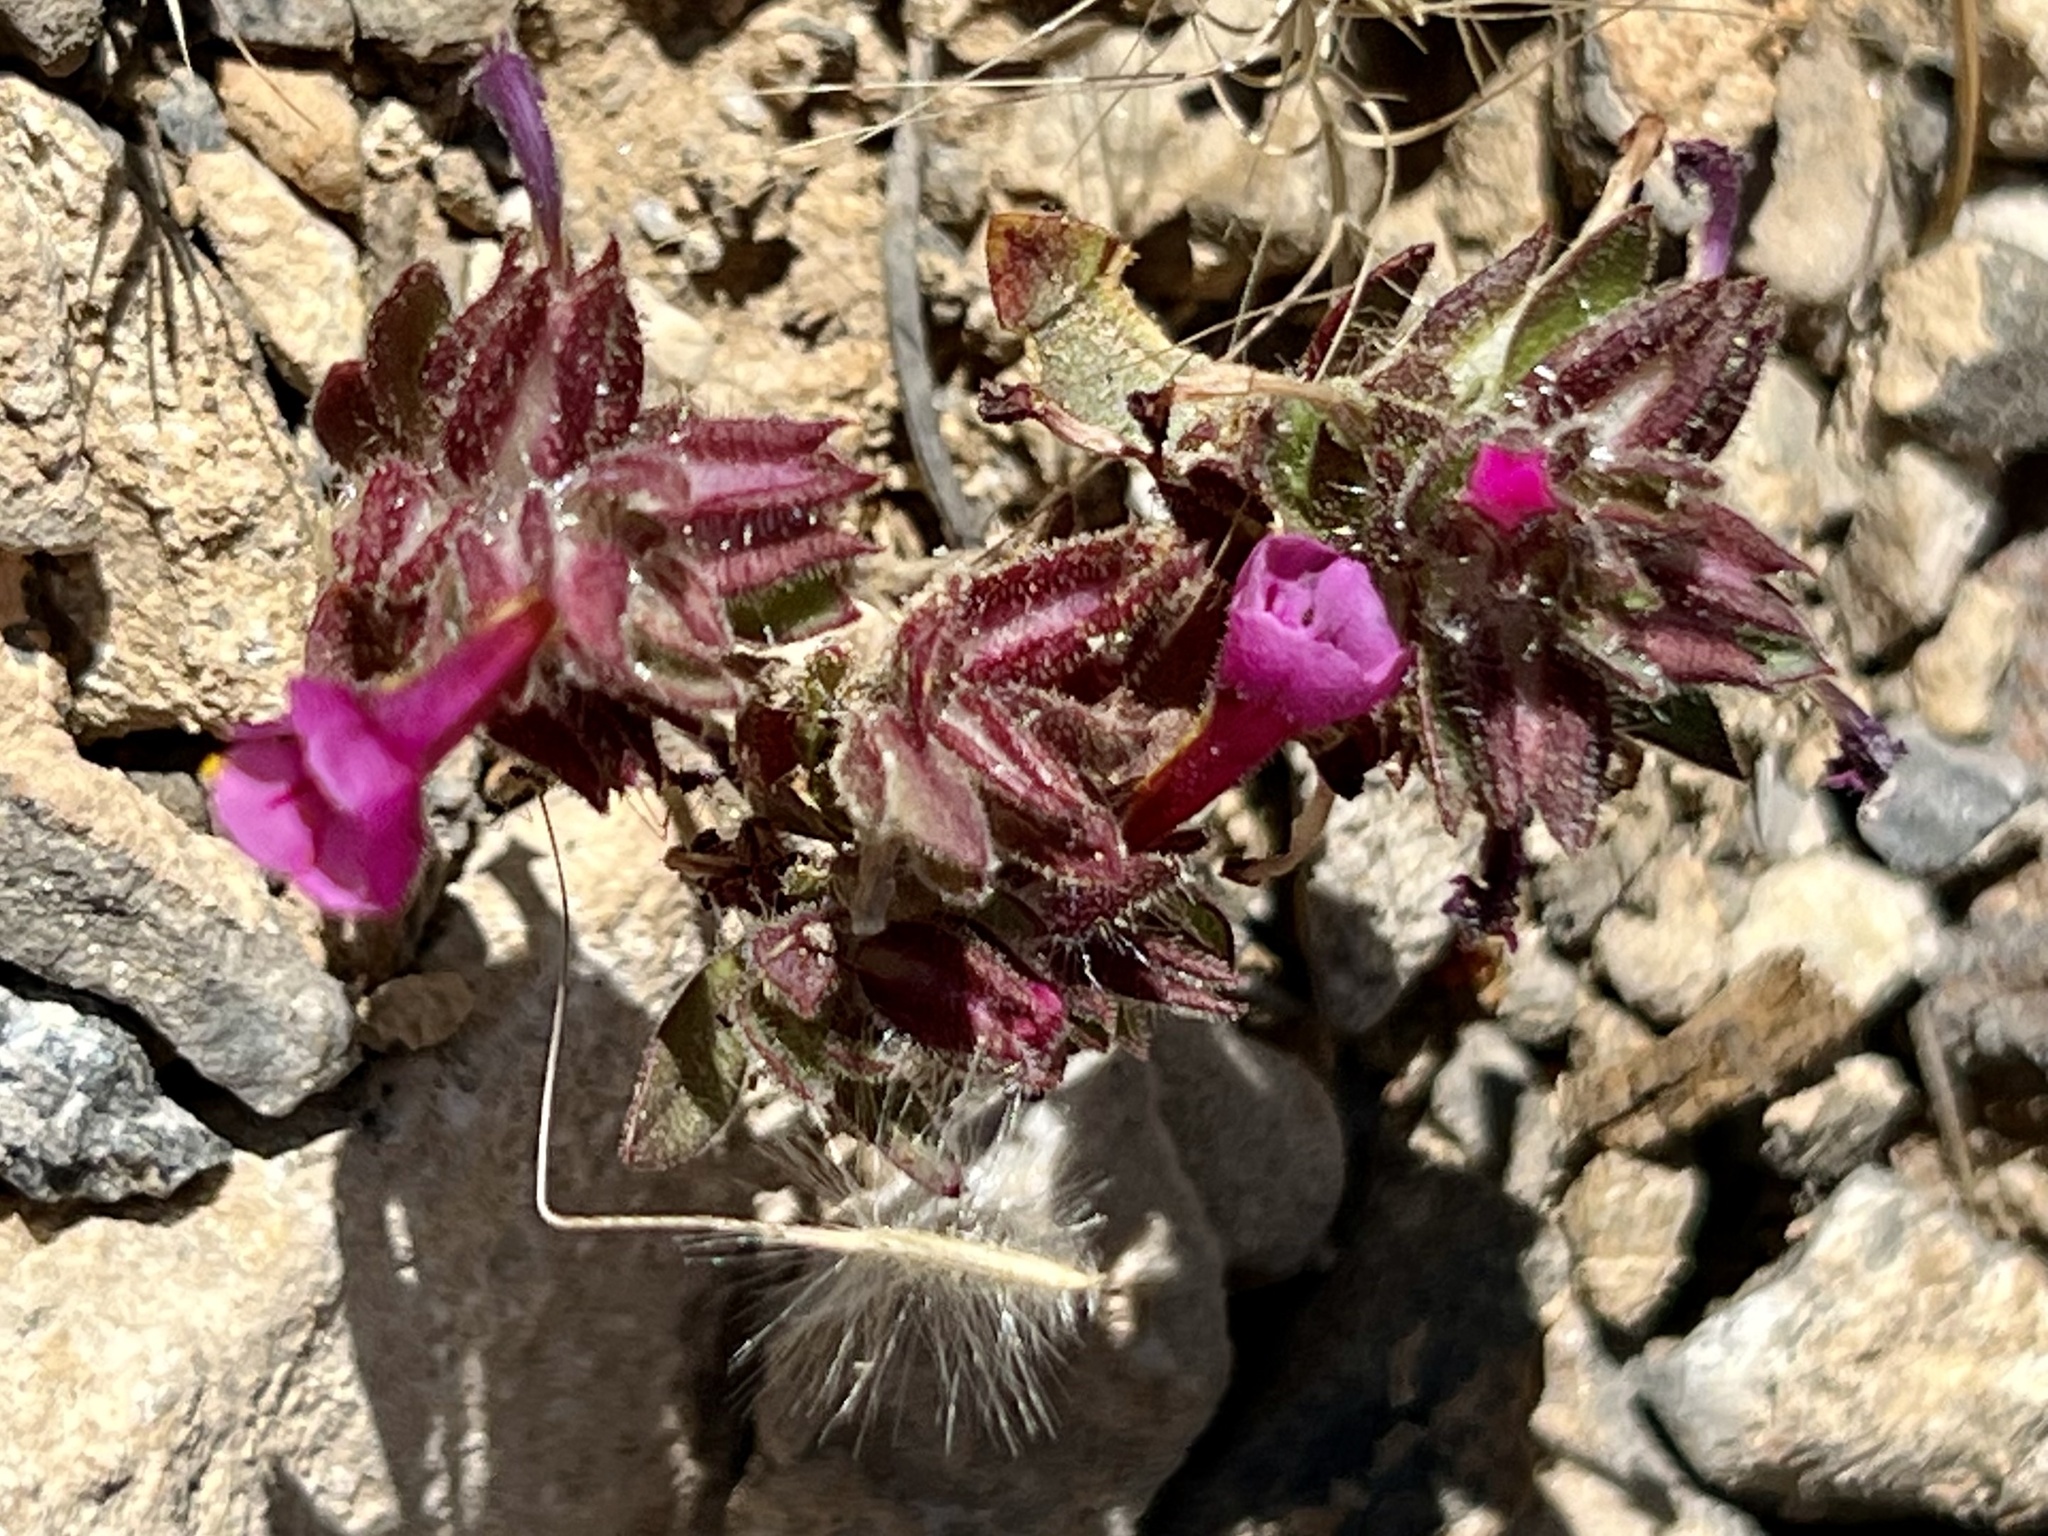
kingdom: Plantae
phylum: Tracheophyta
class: Magnoliopsida
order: Lamiales
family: Phrymaceae
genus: Diplacus
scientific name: Diplacus bigelovii
